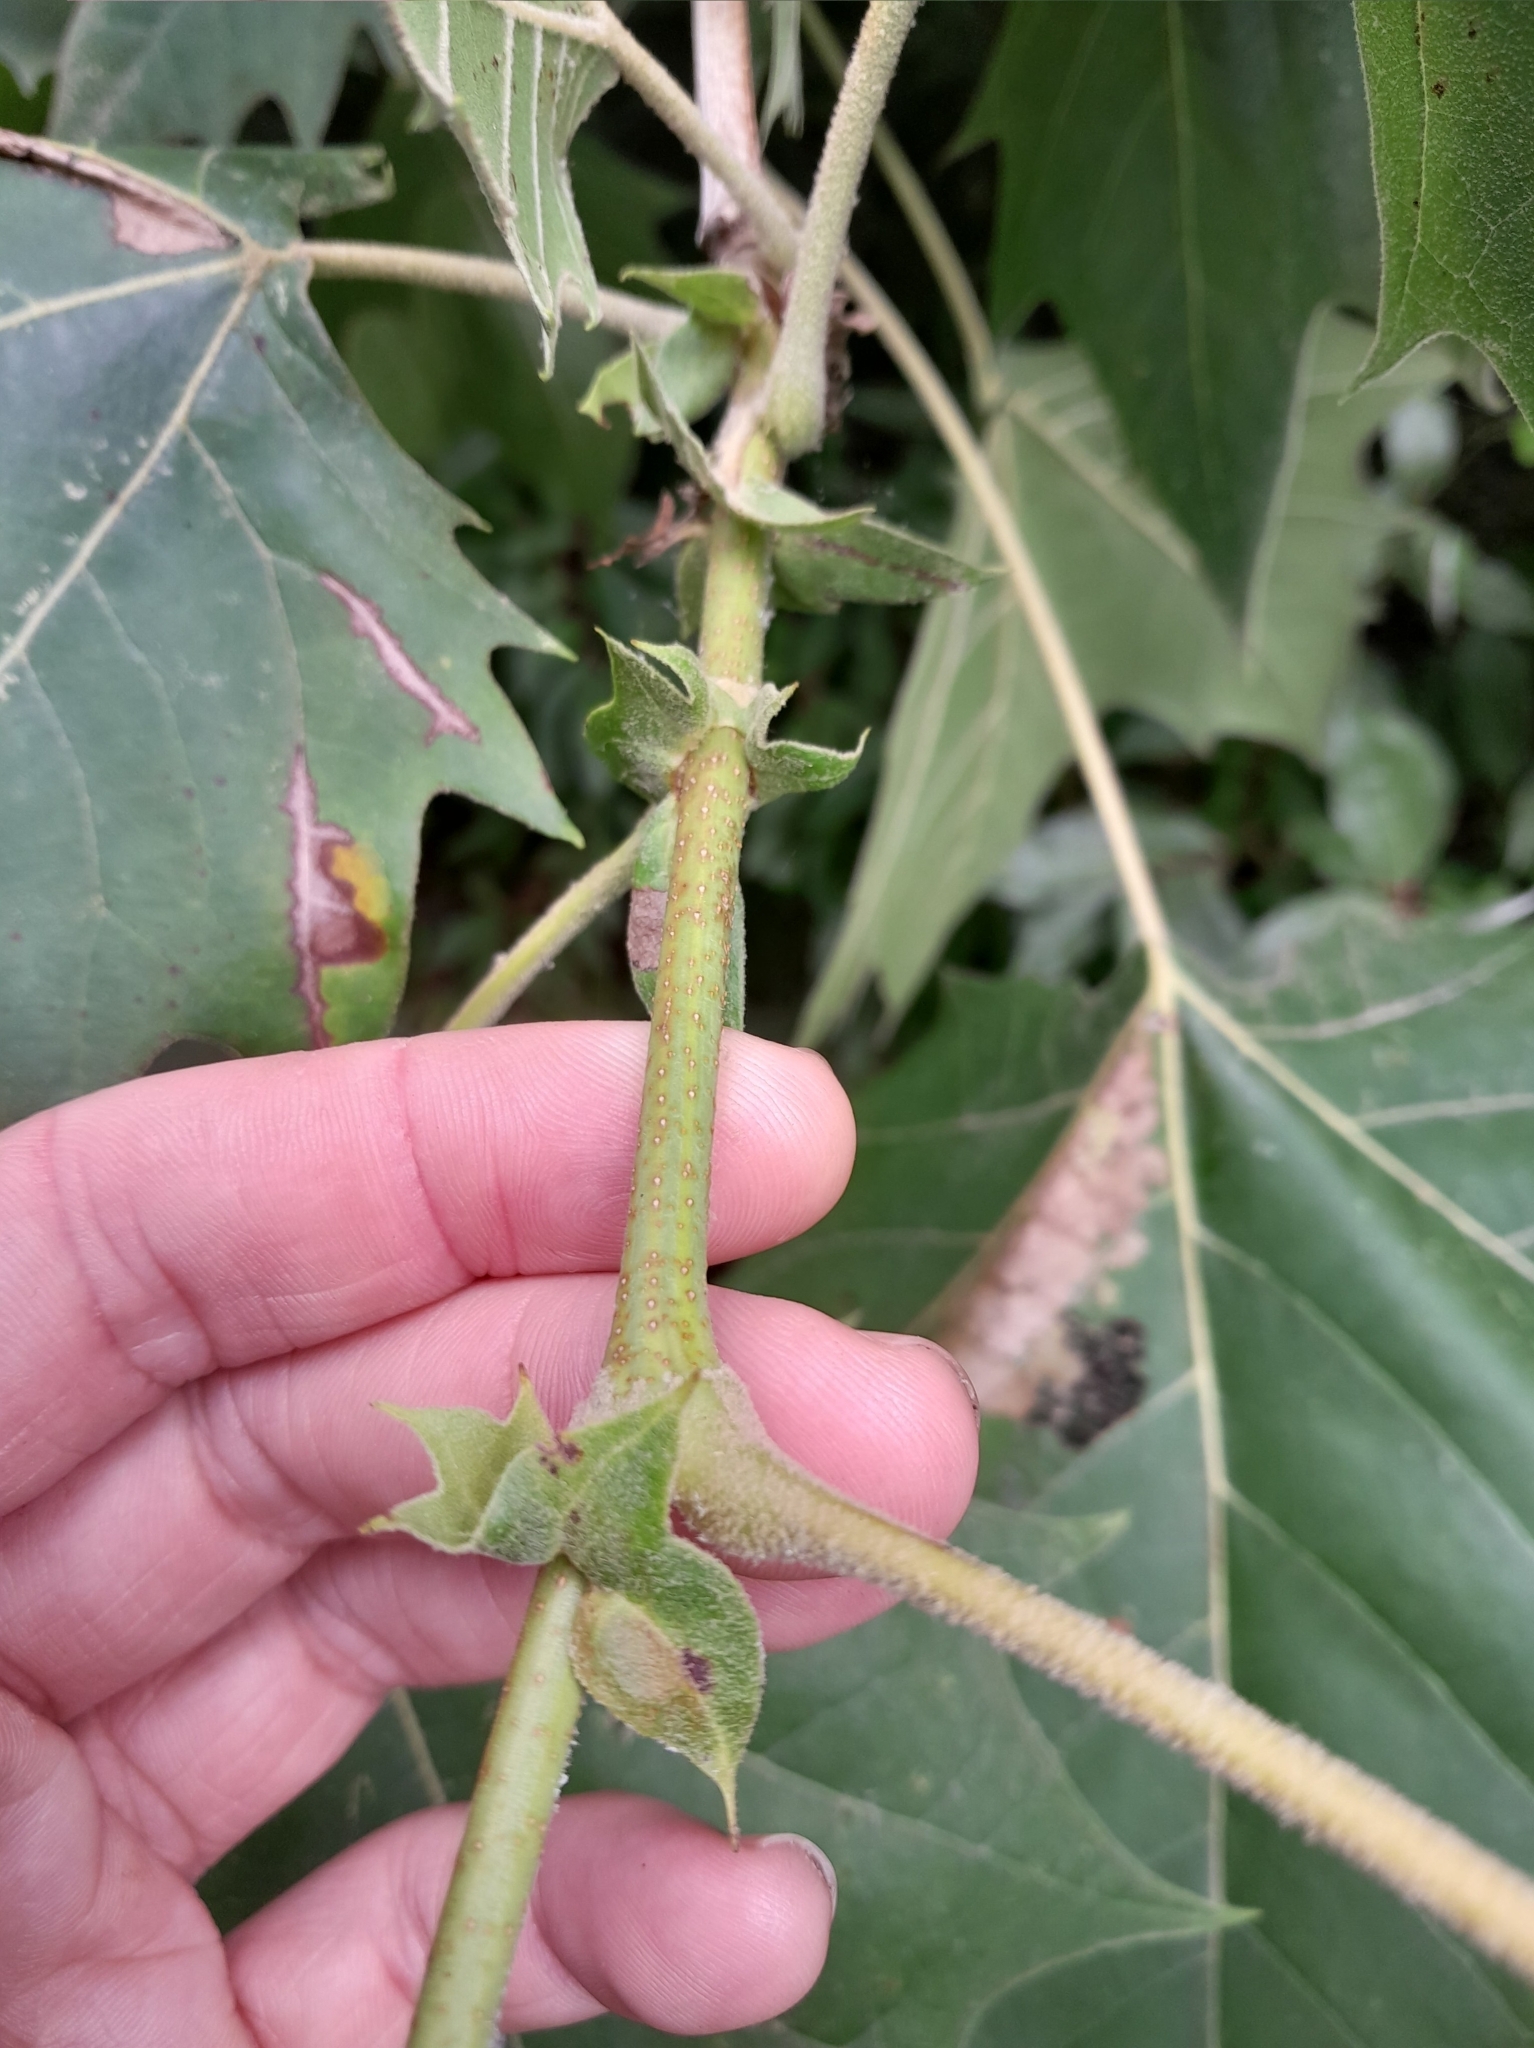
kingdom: Plantae
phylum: Tracheophyta
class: Magnoliopsida
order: Proteales
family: Platanaceae
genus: Platanus
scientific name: Platanus occidentalis
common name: American sycamore
